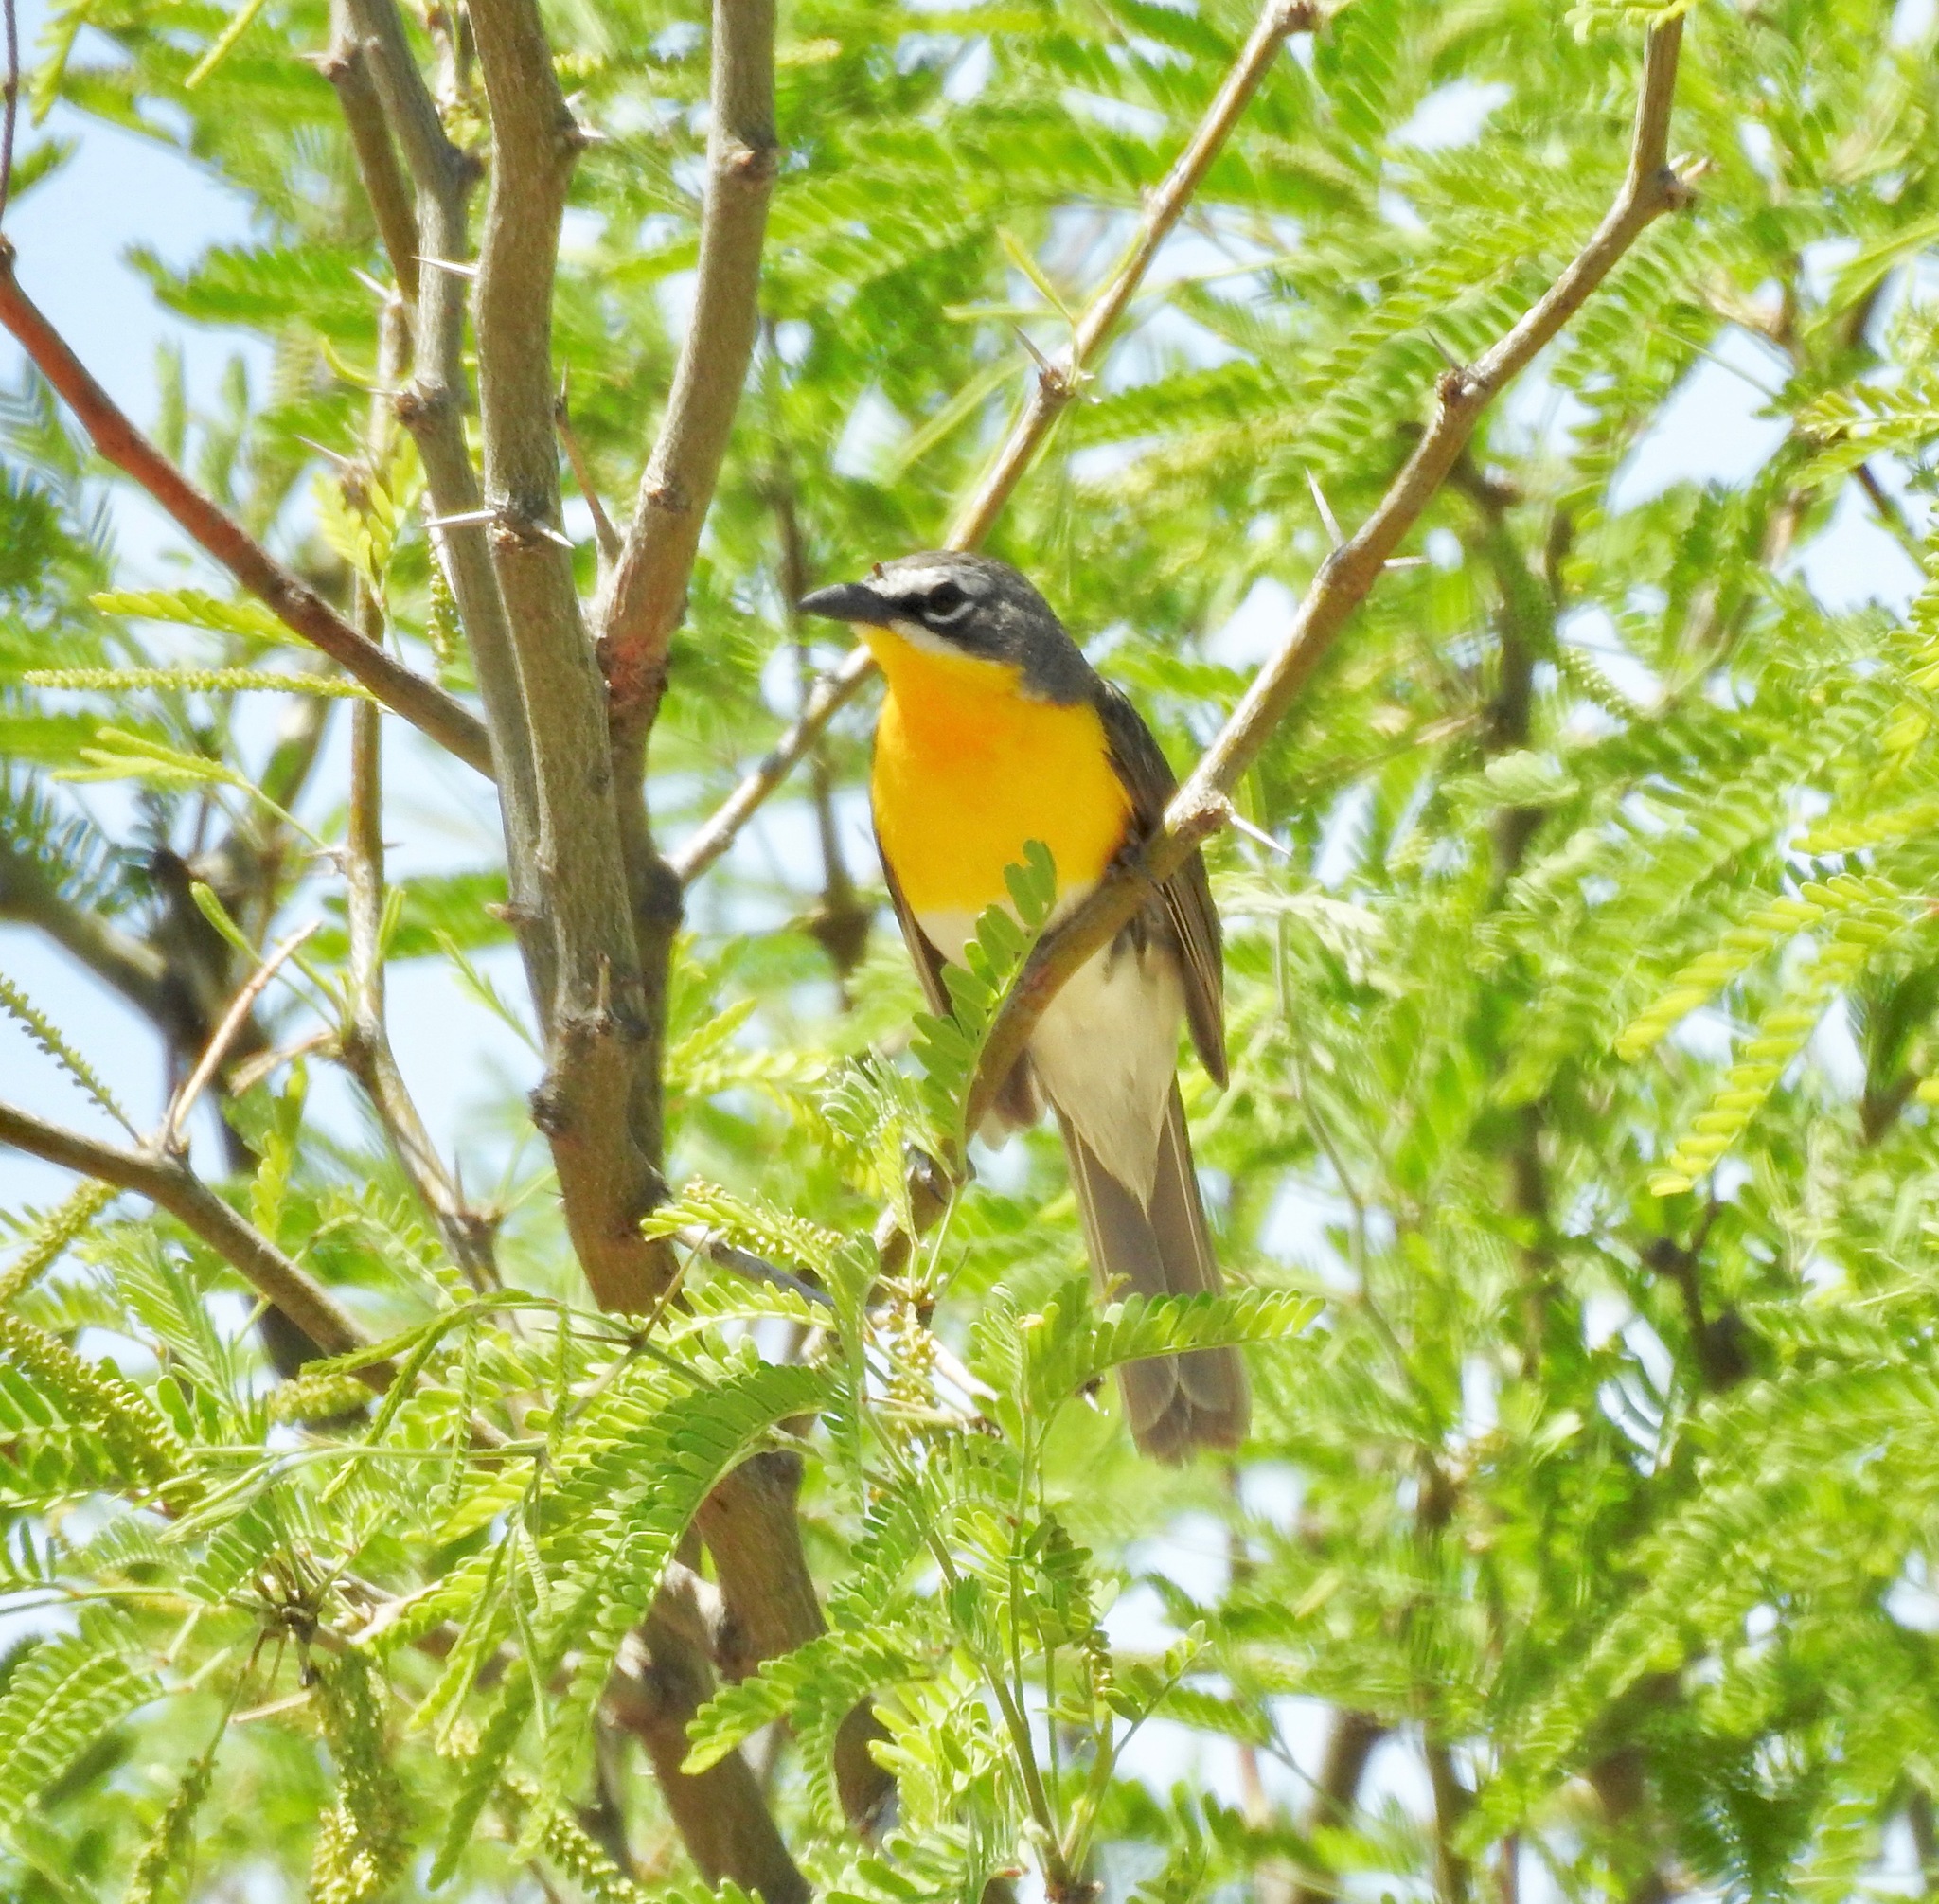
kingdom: Animalia
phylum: Chordata
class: Aves
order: Passeriformes
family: Parulidae
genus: Icteria
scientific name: Icteria virens
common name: Yellow-breasted chat
